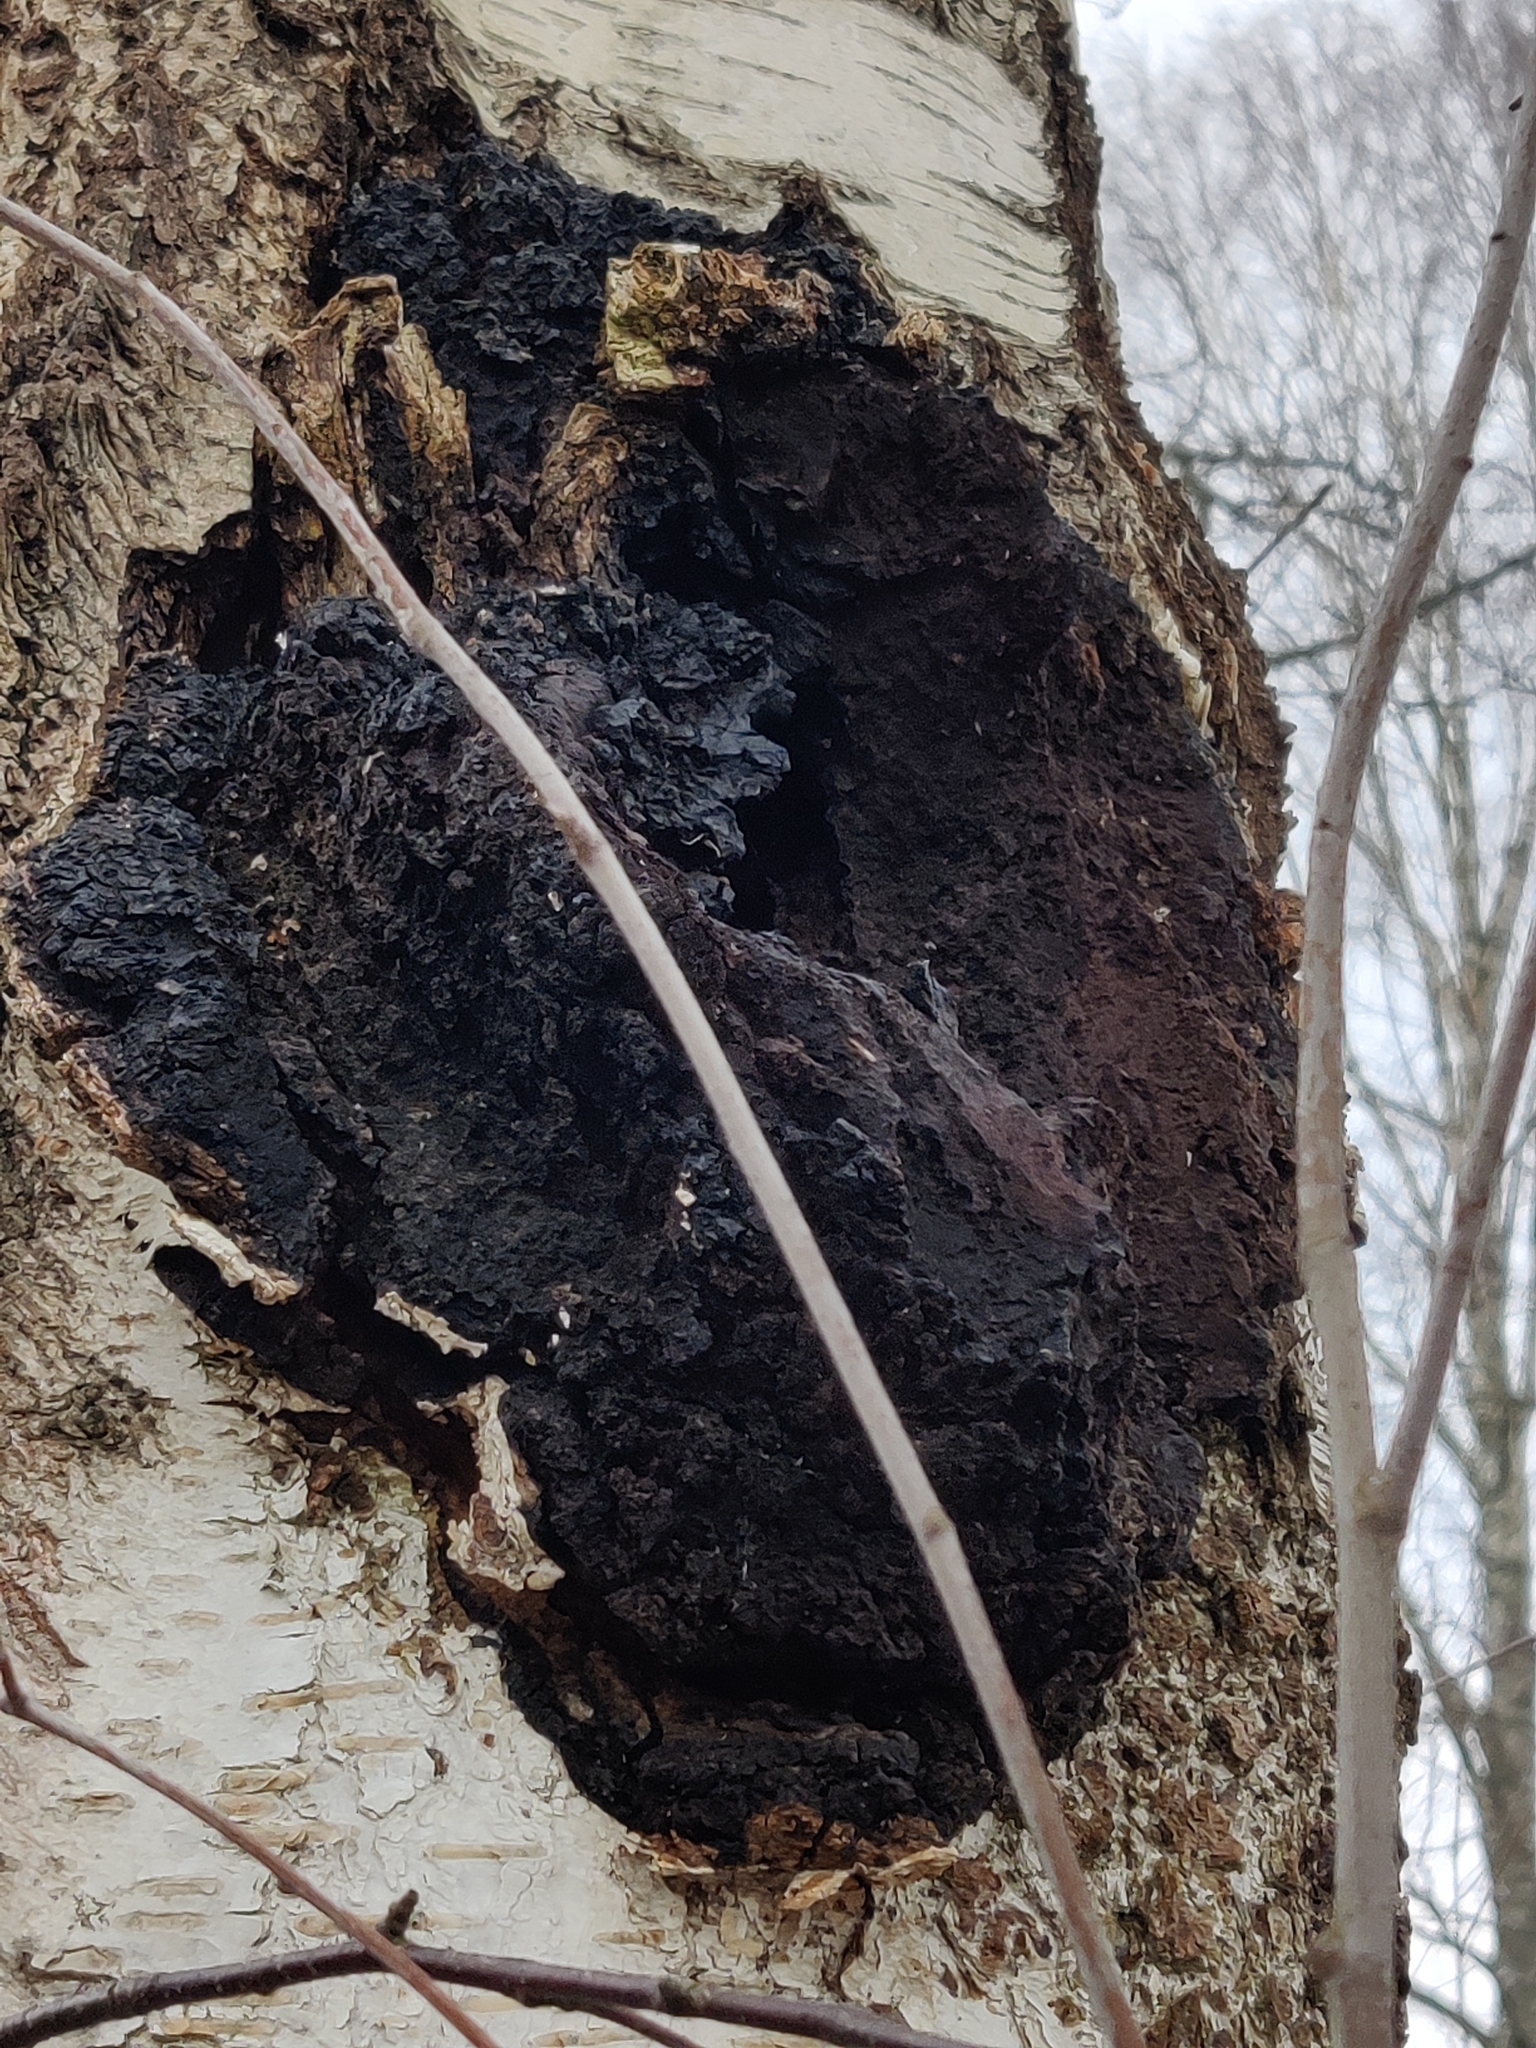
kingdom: Fungi
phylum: Basidiomycota
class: Agaricomycetes
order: Hymenochaetales
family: Hymenochaetaceae
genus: Inonotus
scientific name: Inonotus obliquus
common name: Chaga
